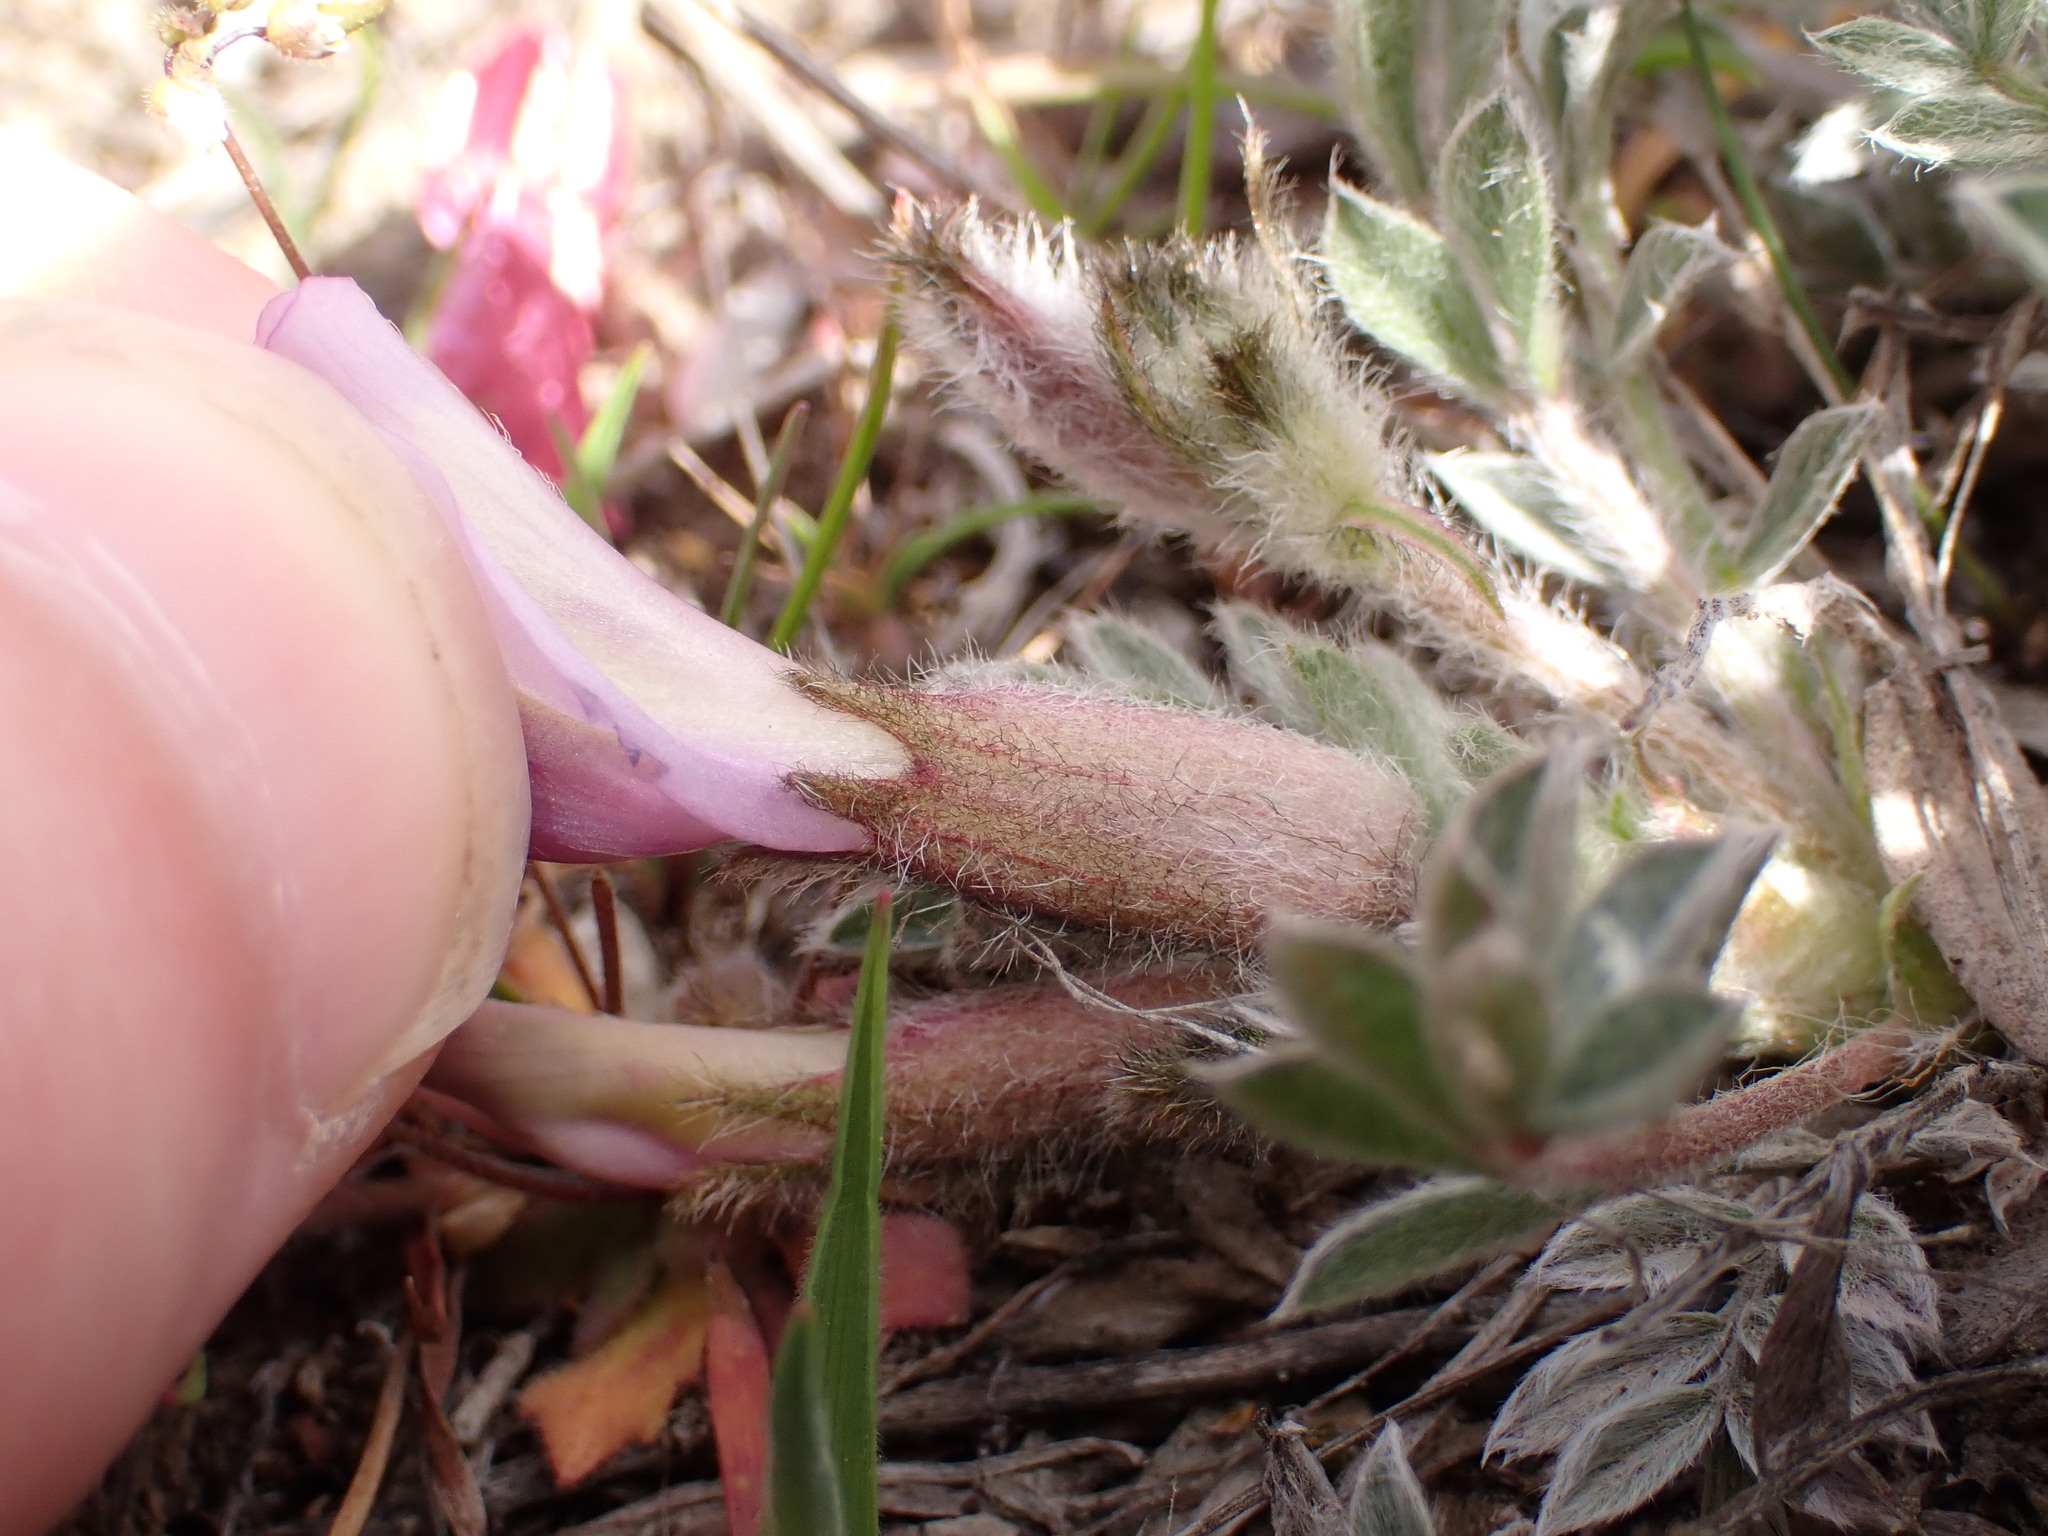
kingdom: Plantae
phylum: Tracheophyta
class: Magnoliopsida
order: Fabales
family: Fabaceae
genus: Astragalus
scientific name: Astragalus purshii
